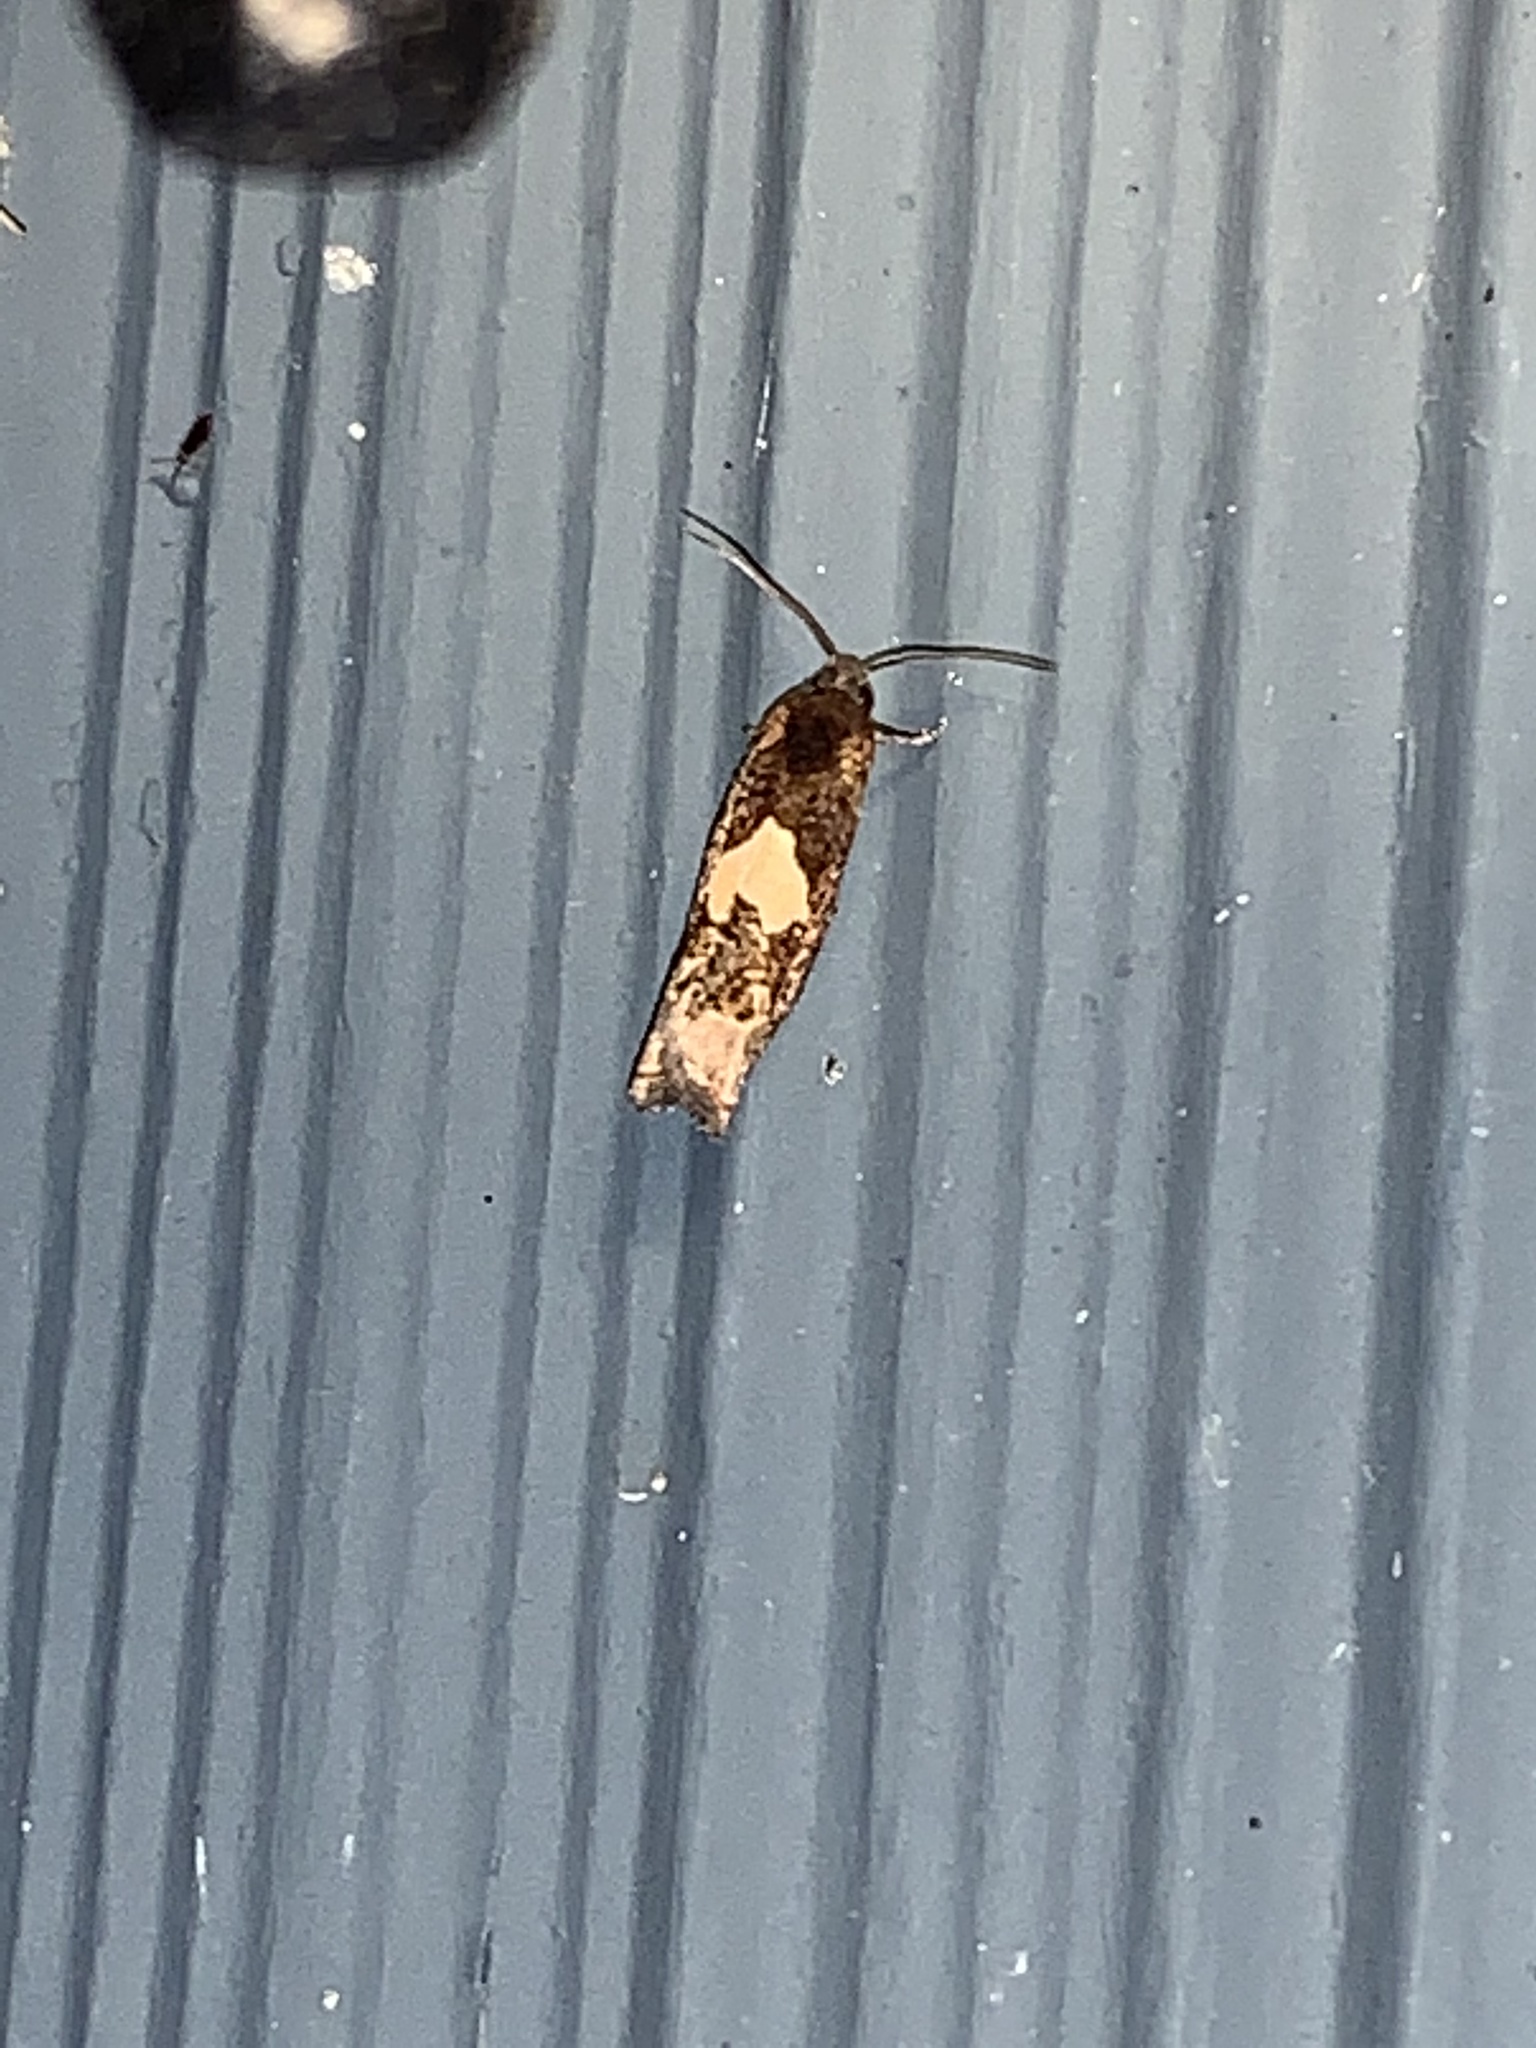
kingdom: Animalia
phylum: Arthropoda
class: Insecta
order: Lepidoptera
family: Tortricidae
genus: Epiblema
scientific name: Epiblema otiosana
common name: Bidens borer moth
